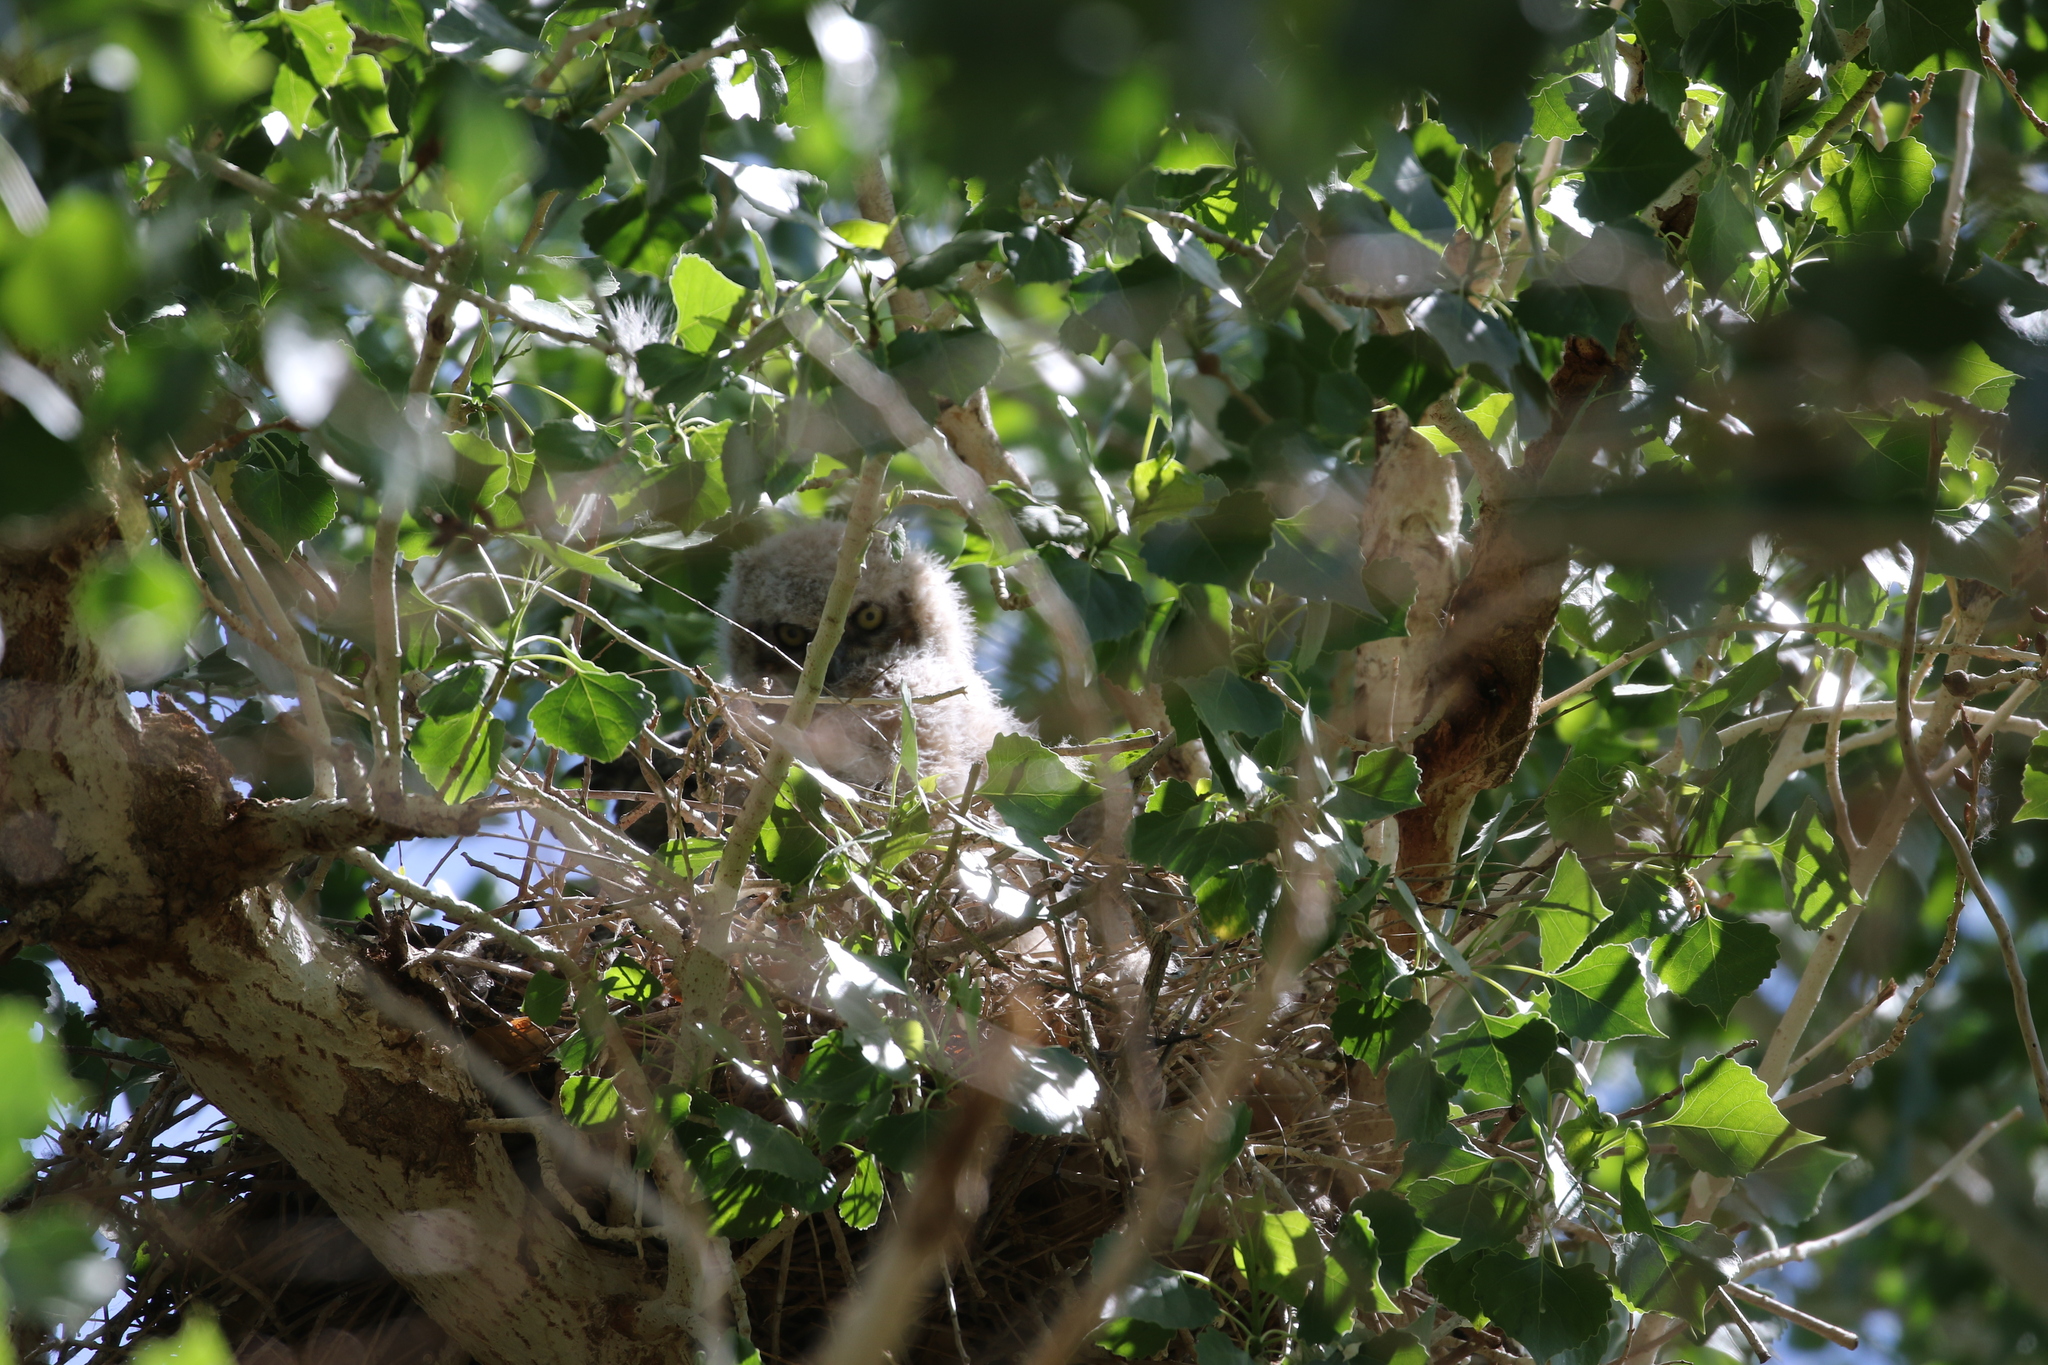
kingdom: Animalia
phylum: Chordata
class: Aves
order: Strigiformes
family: Strigidae
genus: Bubo
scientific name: Bubo virginianus
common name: Great horned owl
